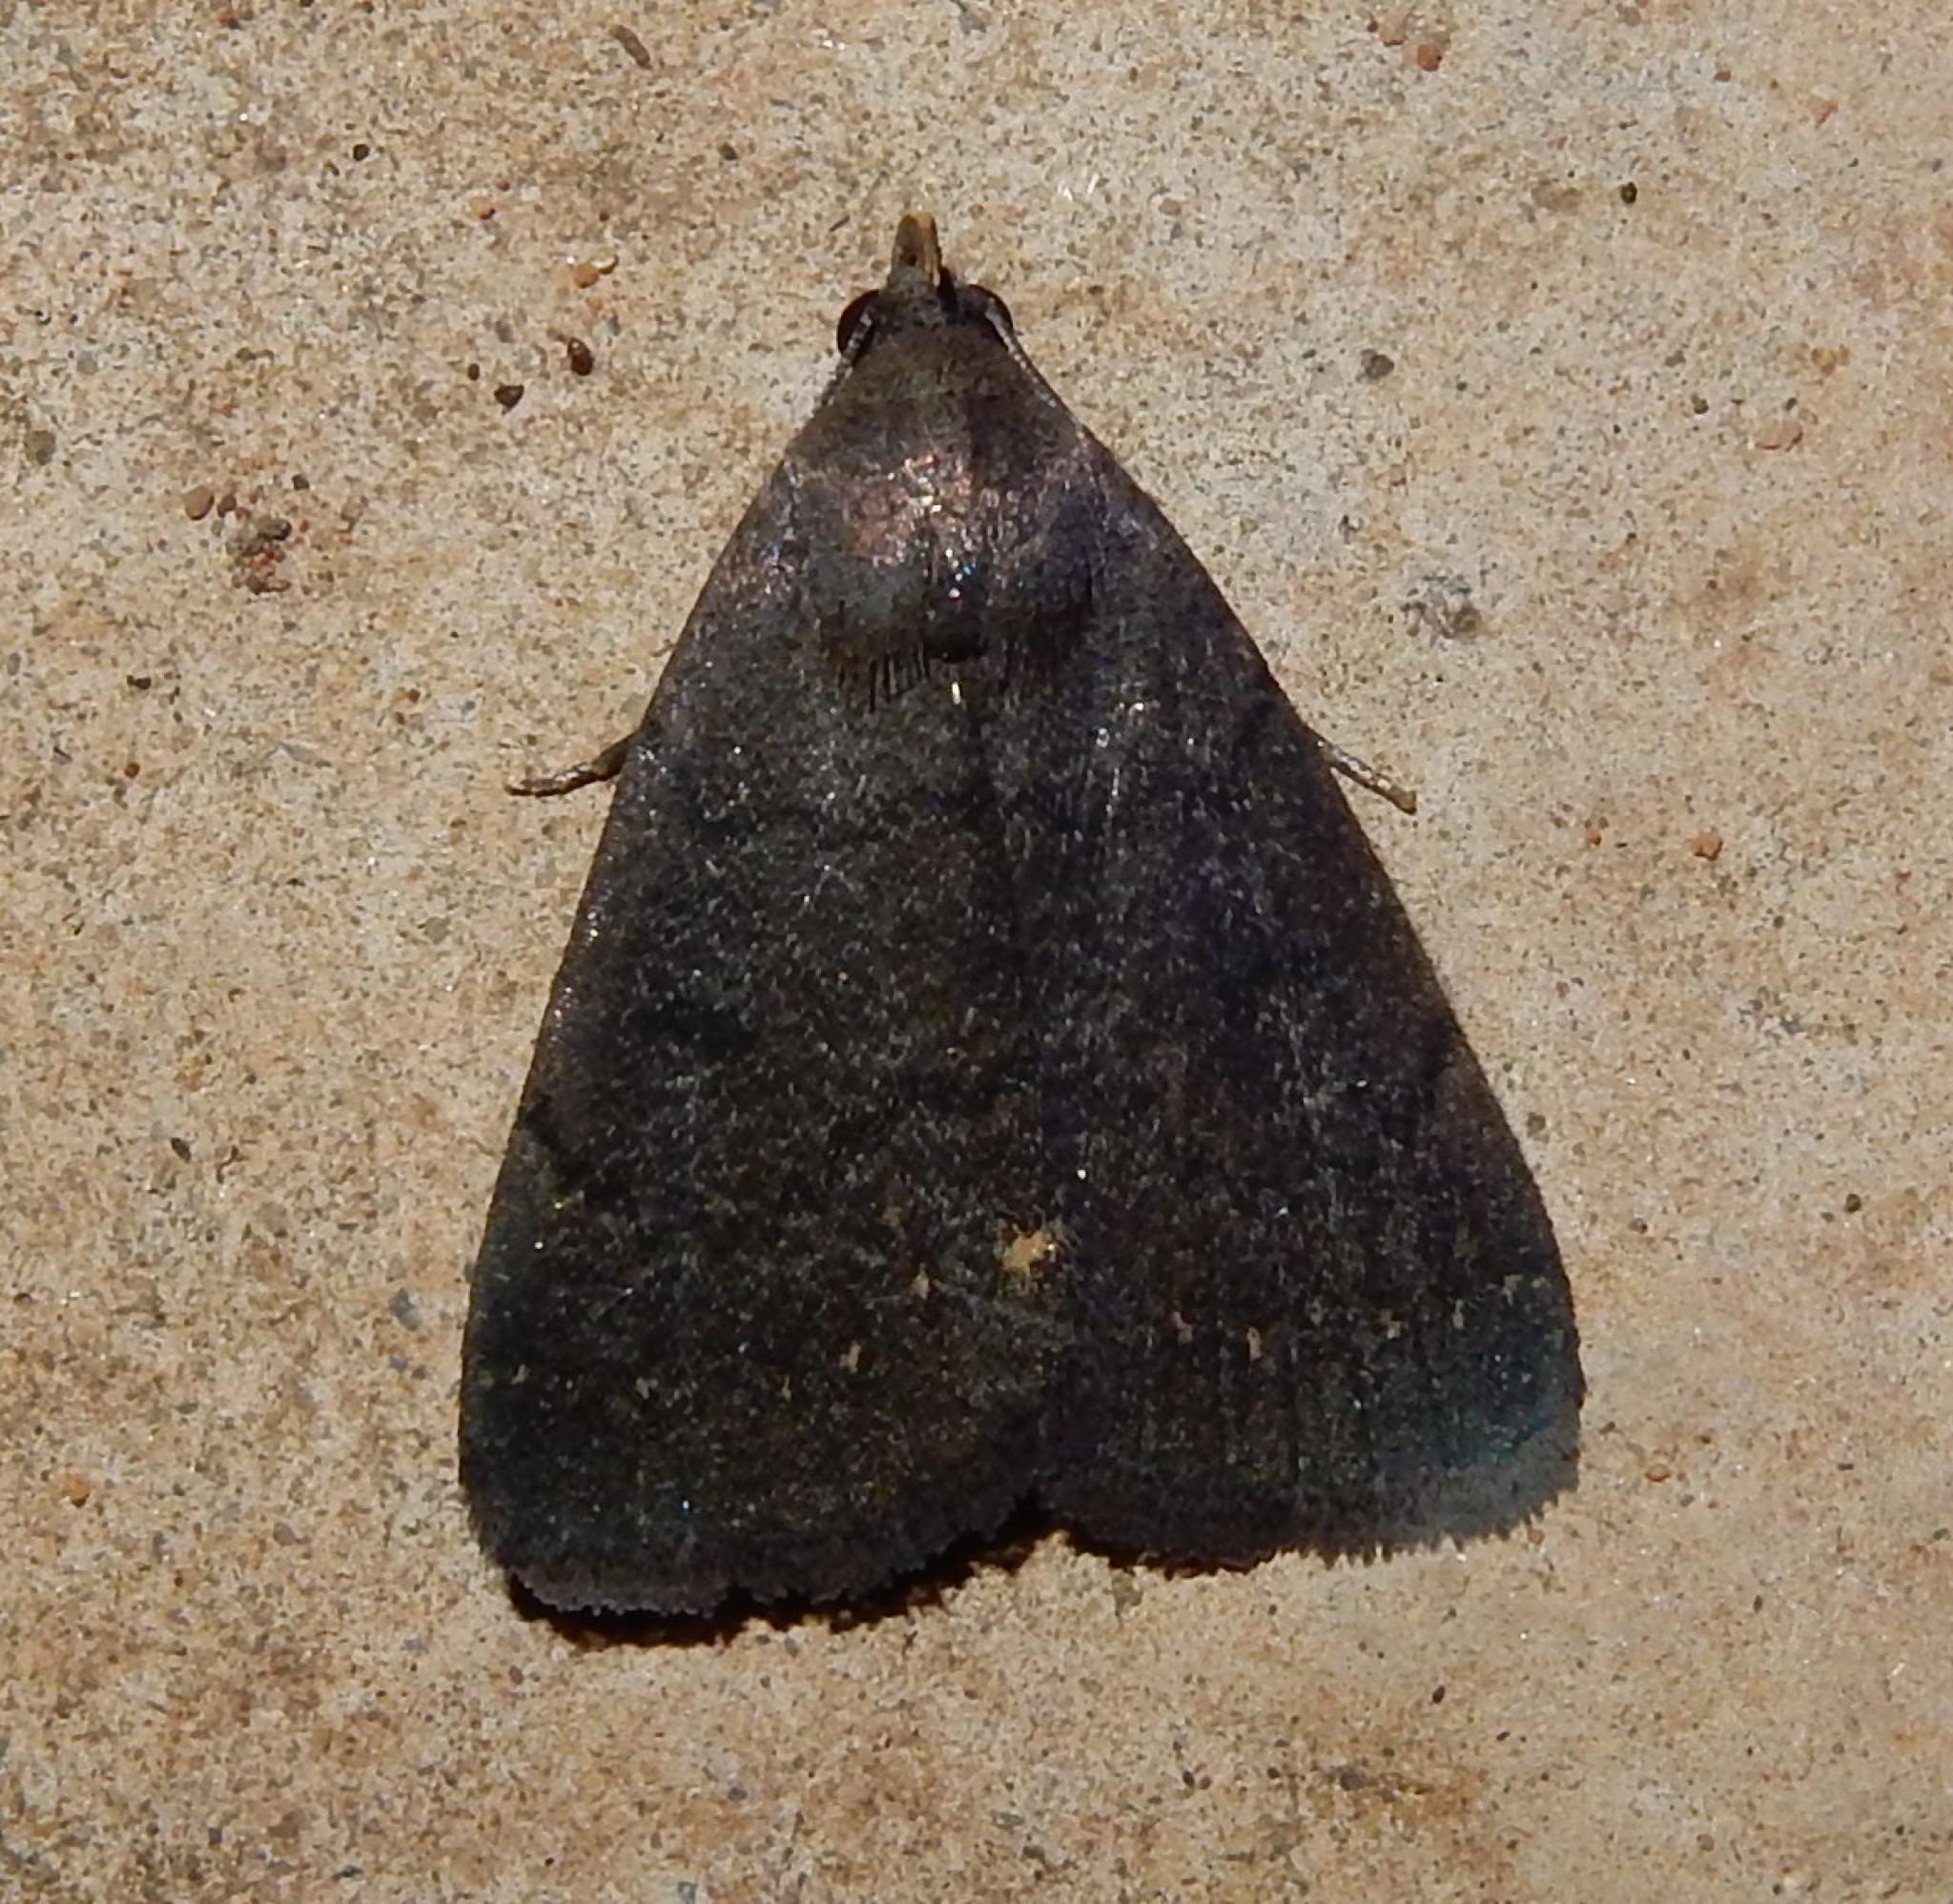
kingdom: Animalia
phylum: Arthropoda
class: Insecta
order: Lepidoptera
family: Erebidae
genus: Nodaria
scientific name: Nodaria nodosalis
